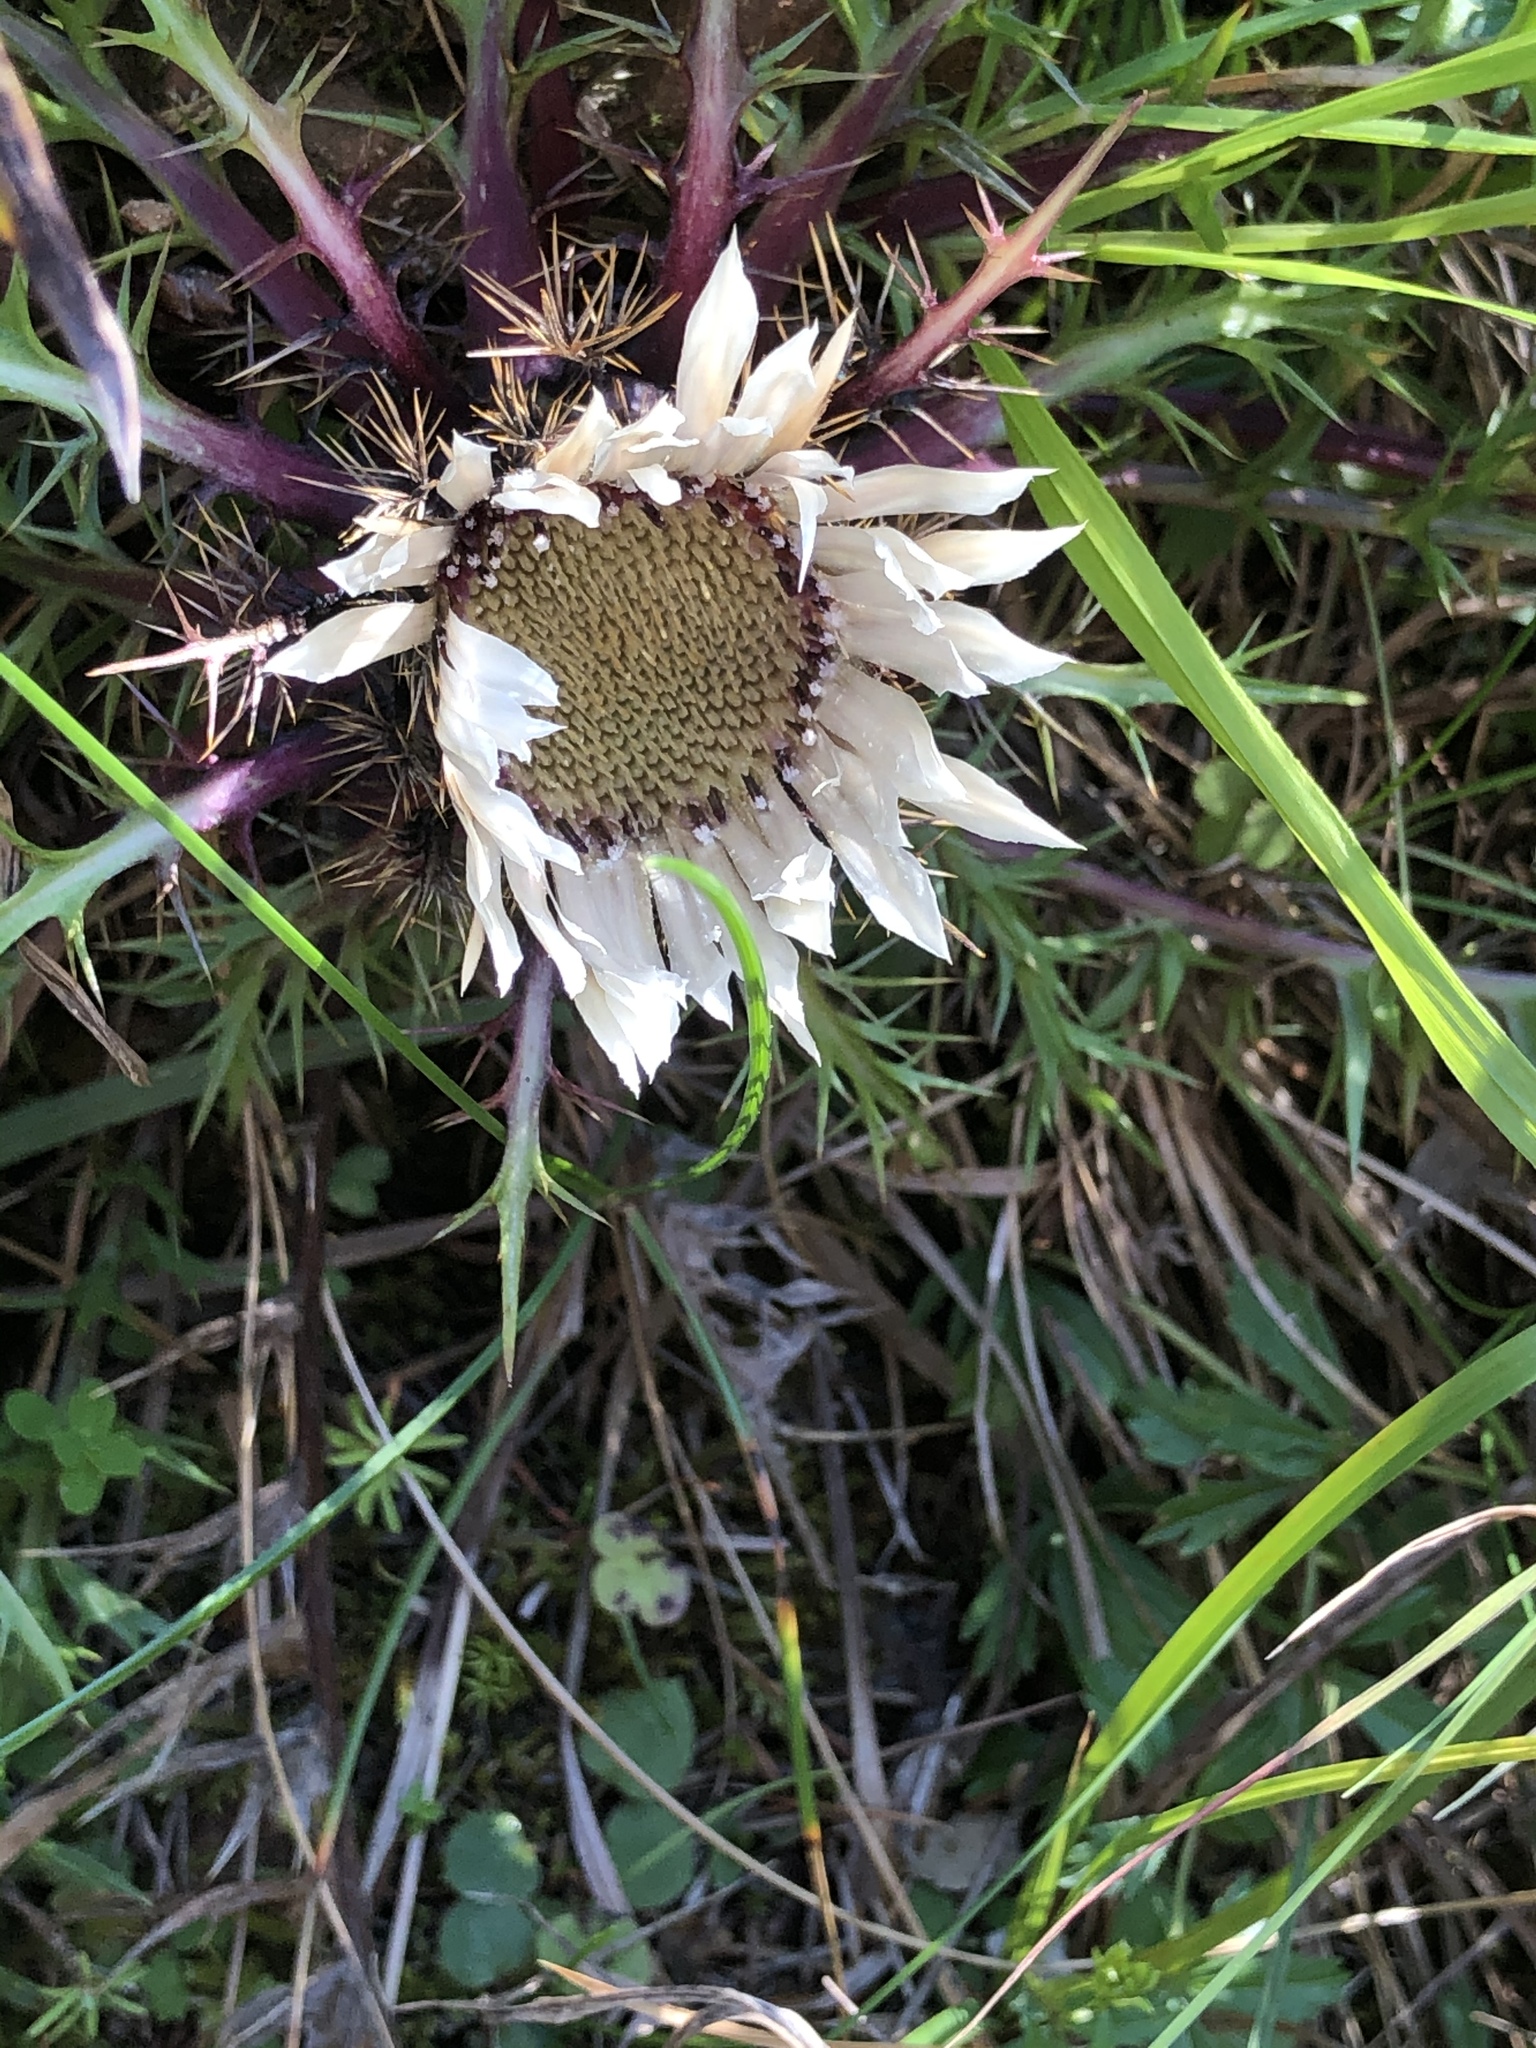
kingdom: Plantae
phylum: Tracheophyta
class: Magnoliopsida
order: Asterales
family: Asteraceae
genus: Carlina
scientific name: Carlina acaulis
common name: Stemless carline thistle
